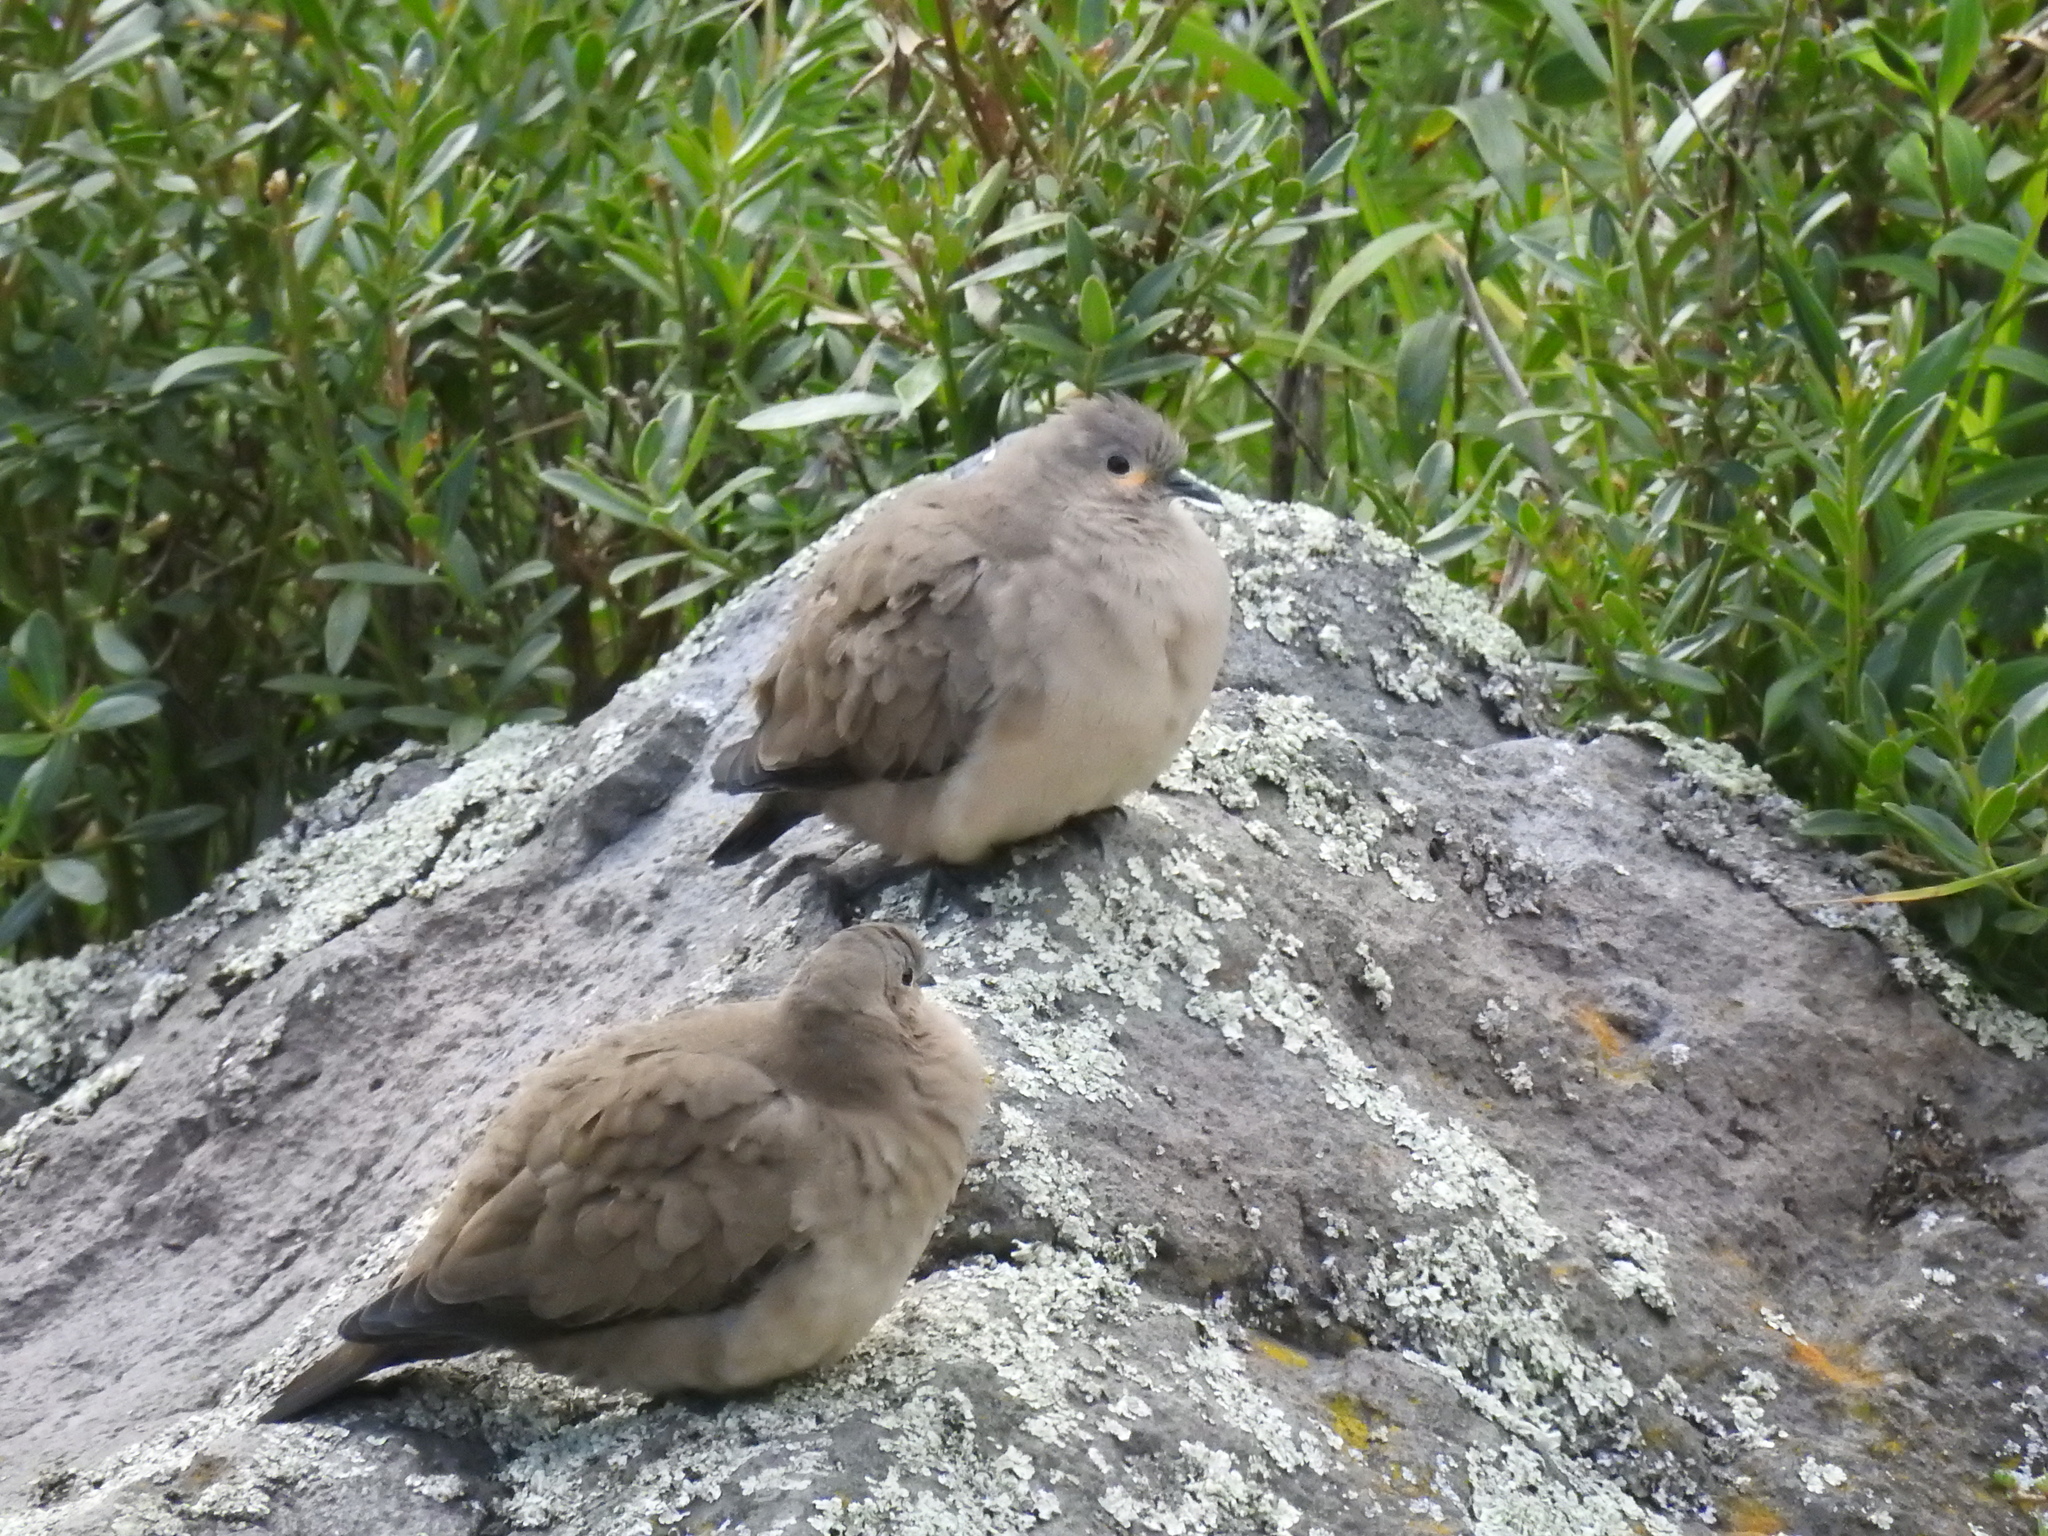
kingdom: Animalia
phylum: Chordata
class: Aves
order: Columbiformes
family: Columbidae
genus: Metriopelia
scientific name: Metriopelia melanoptera
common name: Black-winged ground dove
